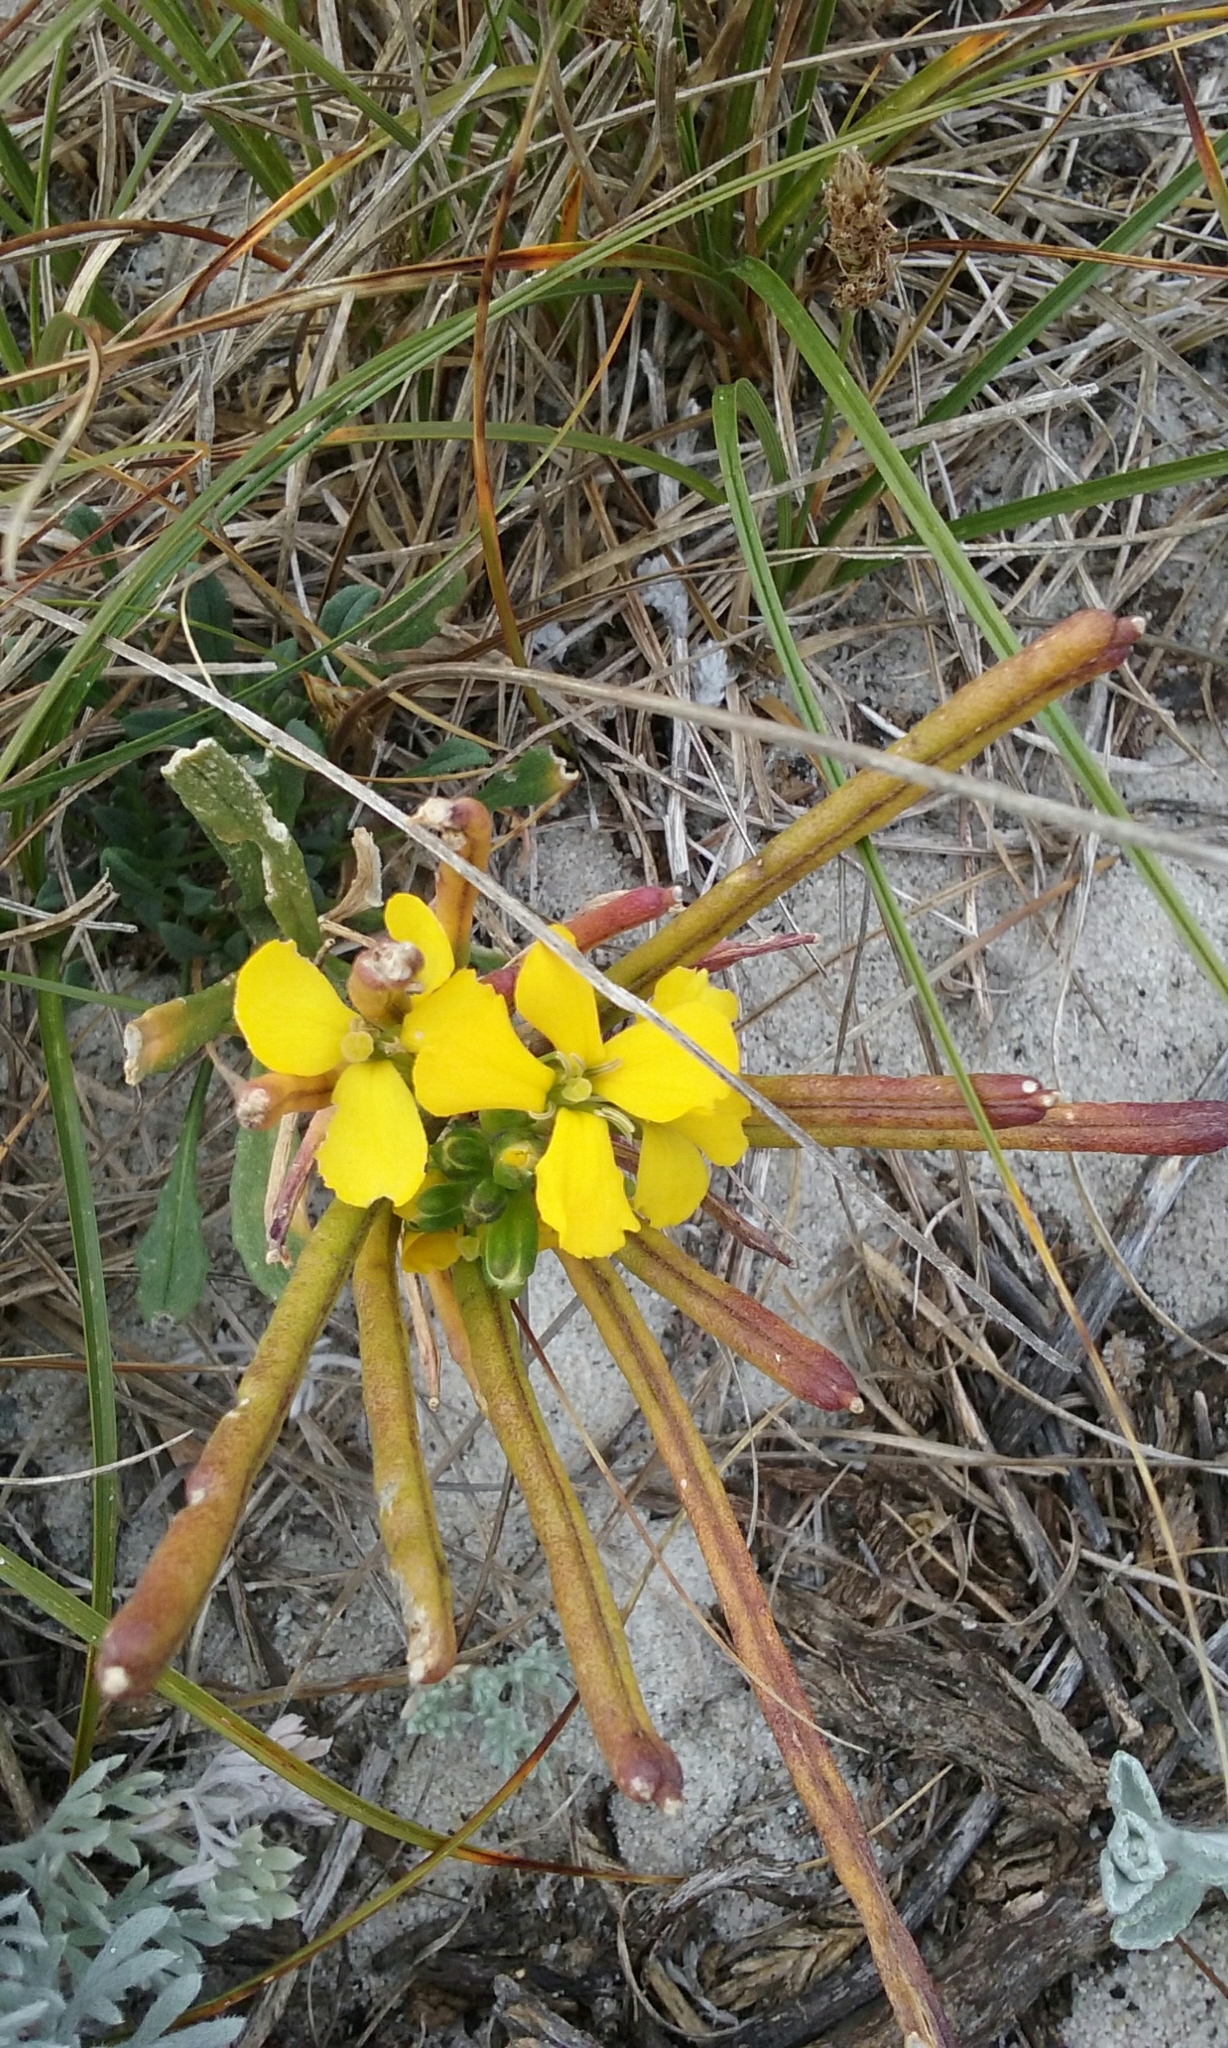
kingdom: Plantae
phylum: Tracheophyta
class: Magnoliopsida
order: Brassicales
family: Brassicaceae
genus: Erysimum
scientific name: Erysimum menziesii
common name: Menzies's wallflower
